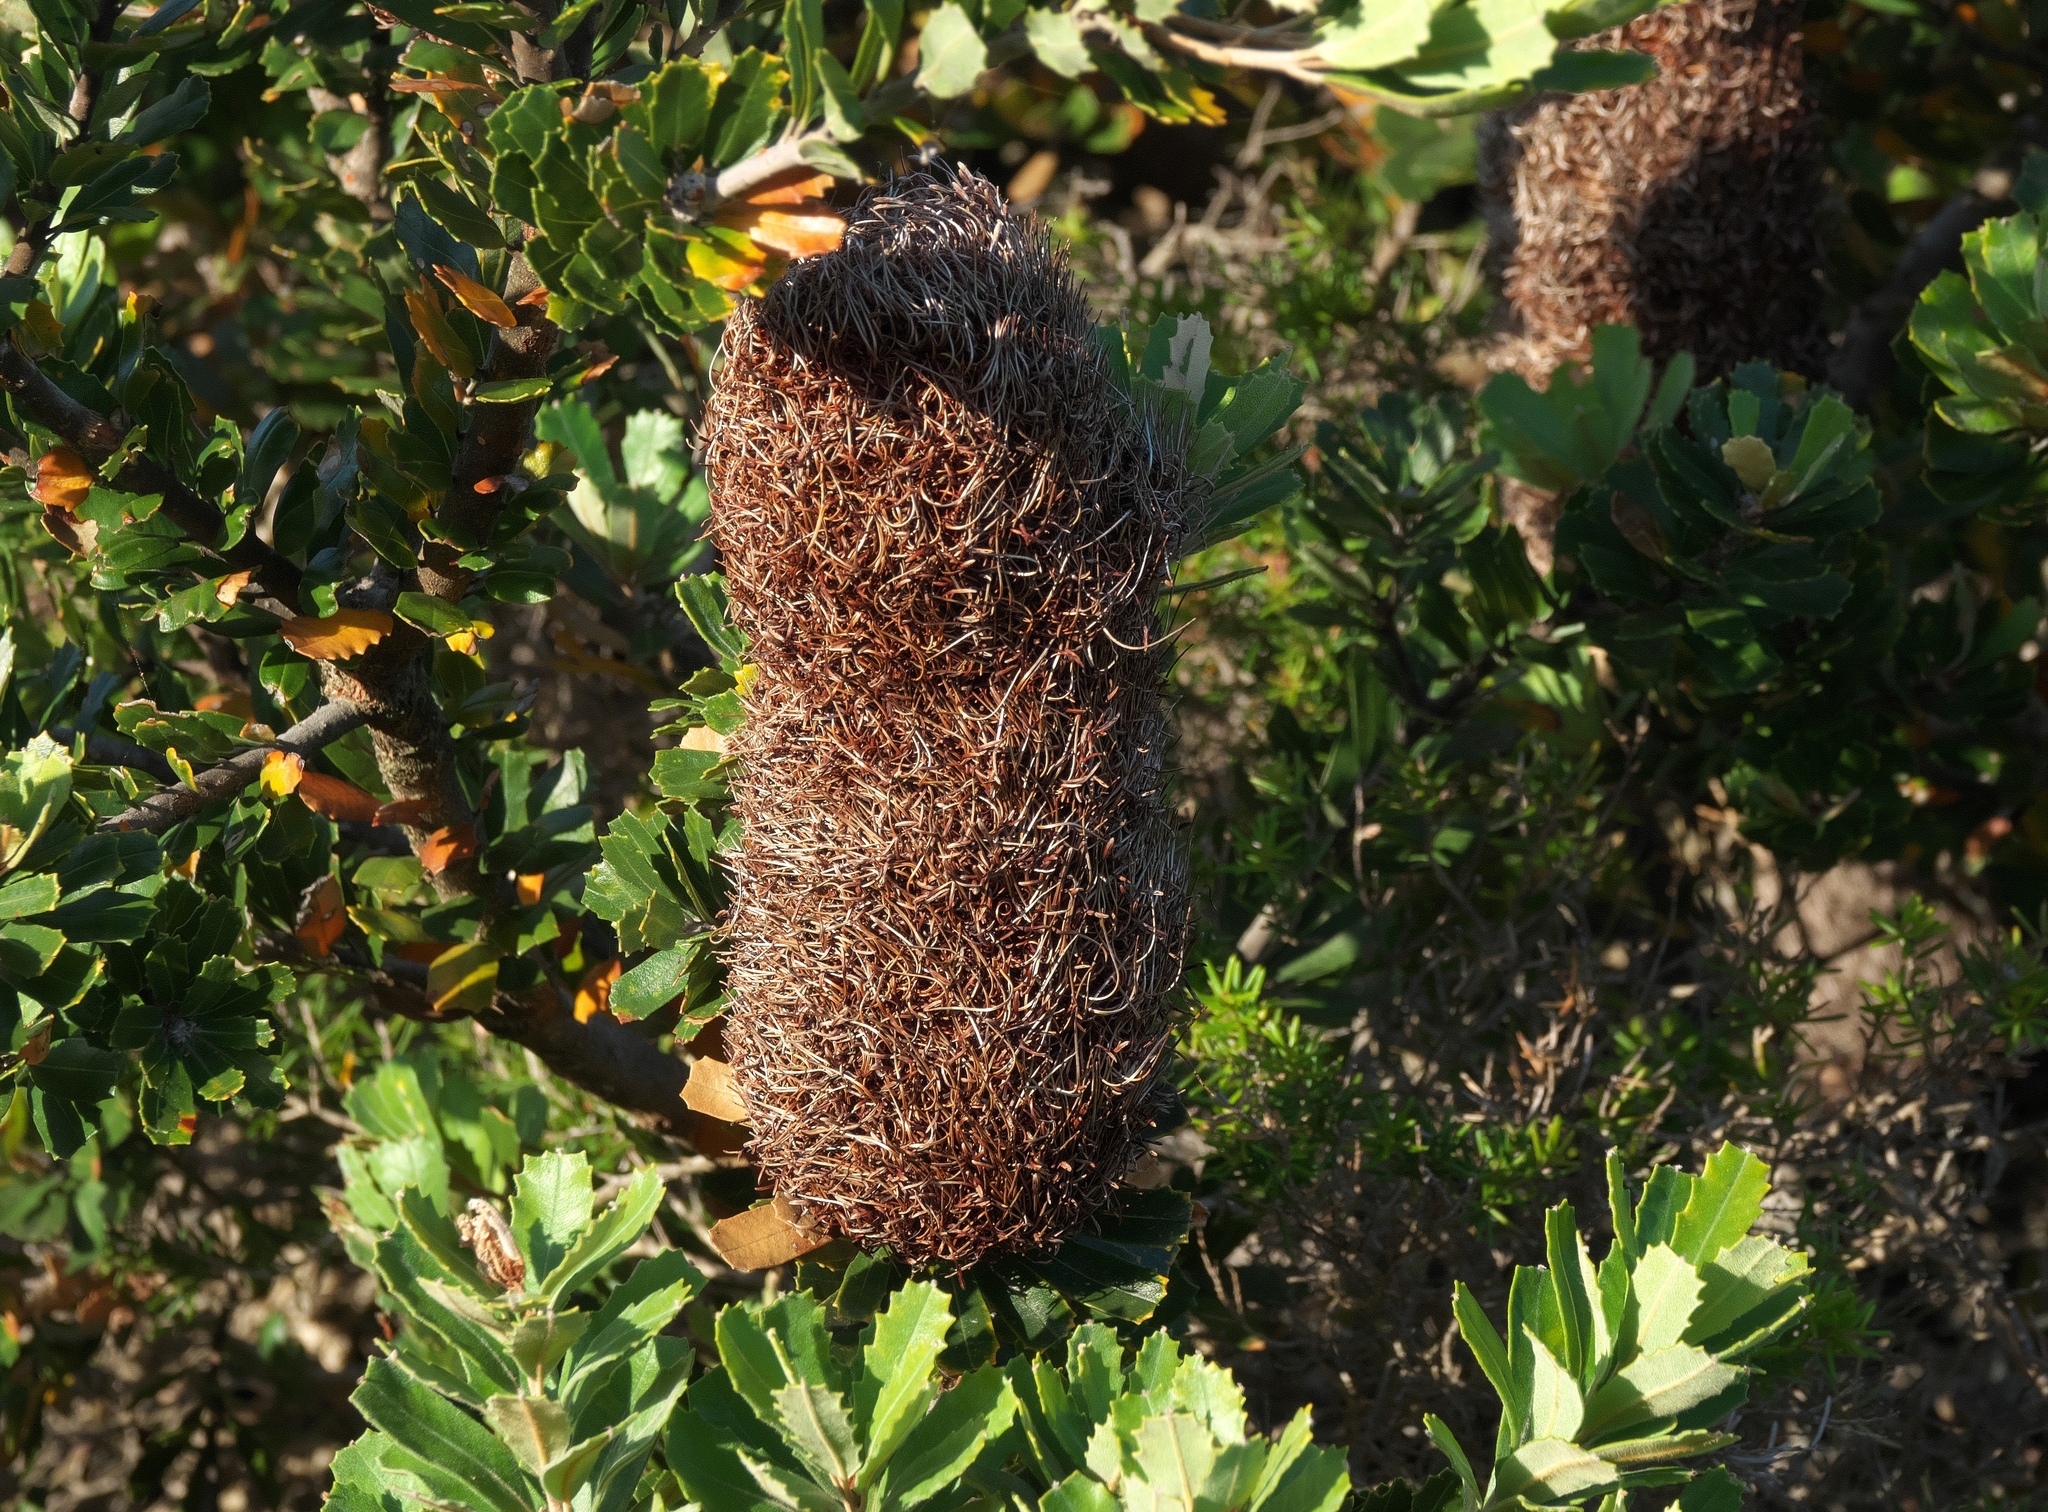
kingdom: Plantae
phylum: Tracheophyta
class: Magnoliopsida
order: Proteales
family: Proteaceae
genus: Banksia
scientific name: Banksia praemorsa
